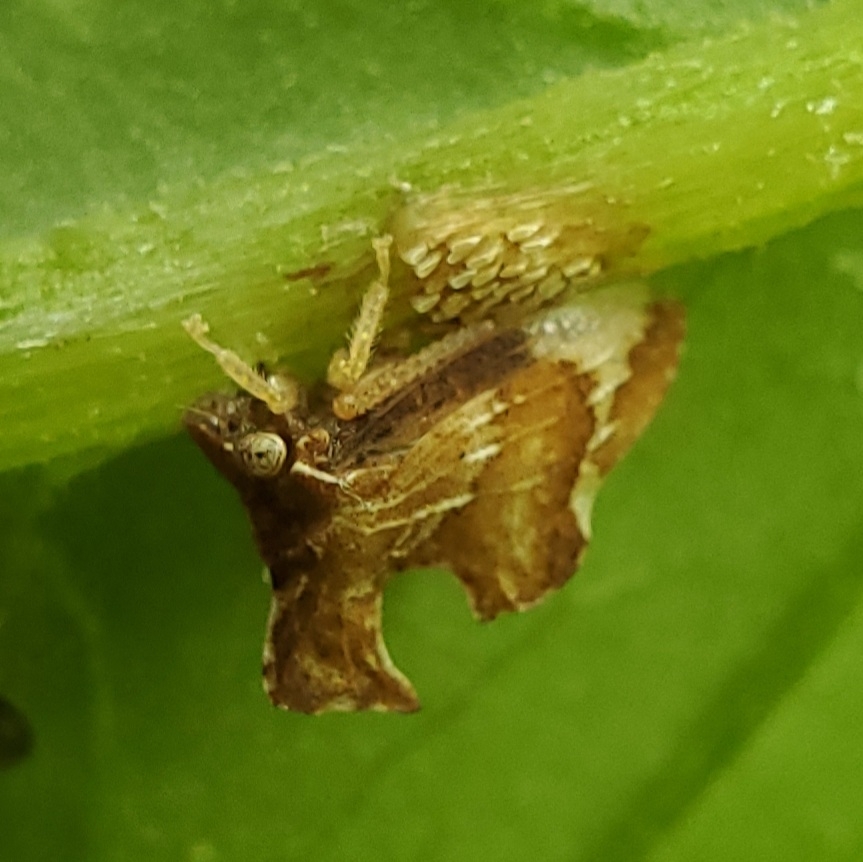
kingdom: Animalia
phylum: Arthropoda
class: Insecta
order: Hemiptera
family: Membracidae
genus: Entylia
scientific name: Entylia carinata
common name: Keeled treehopper
